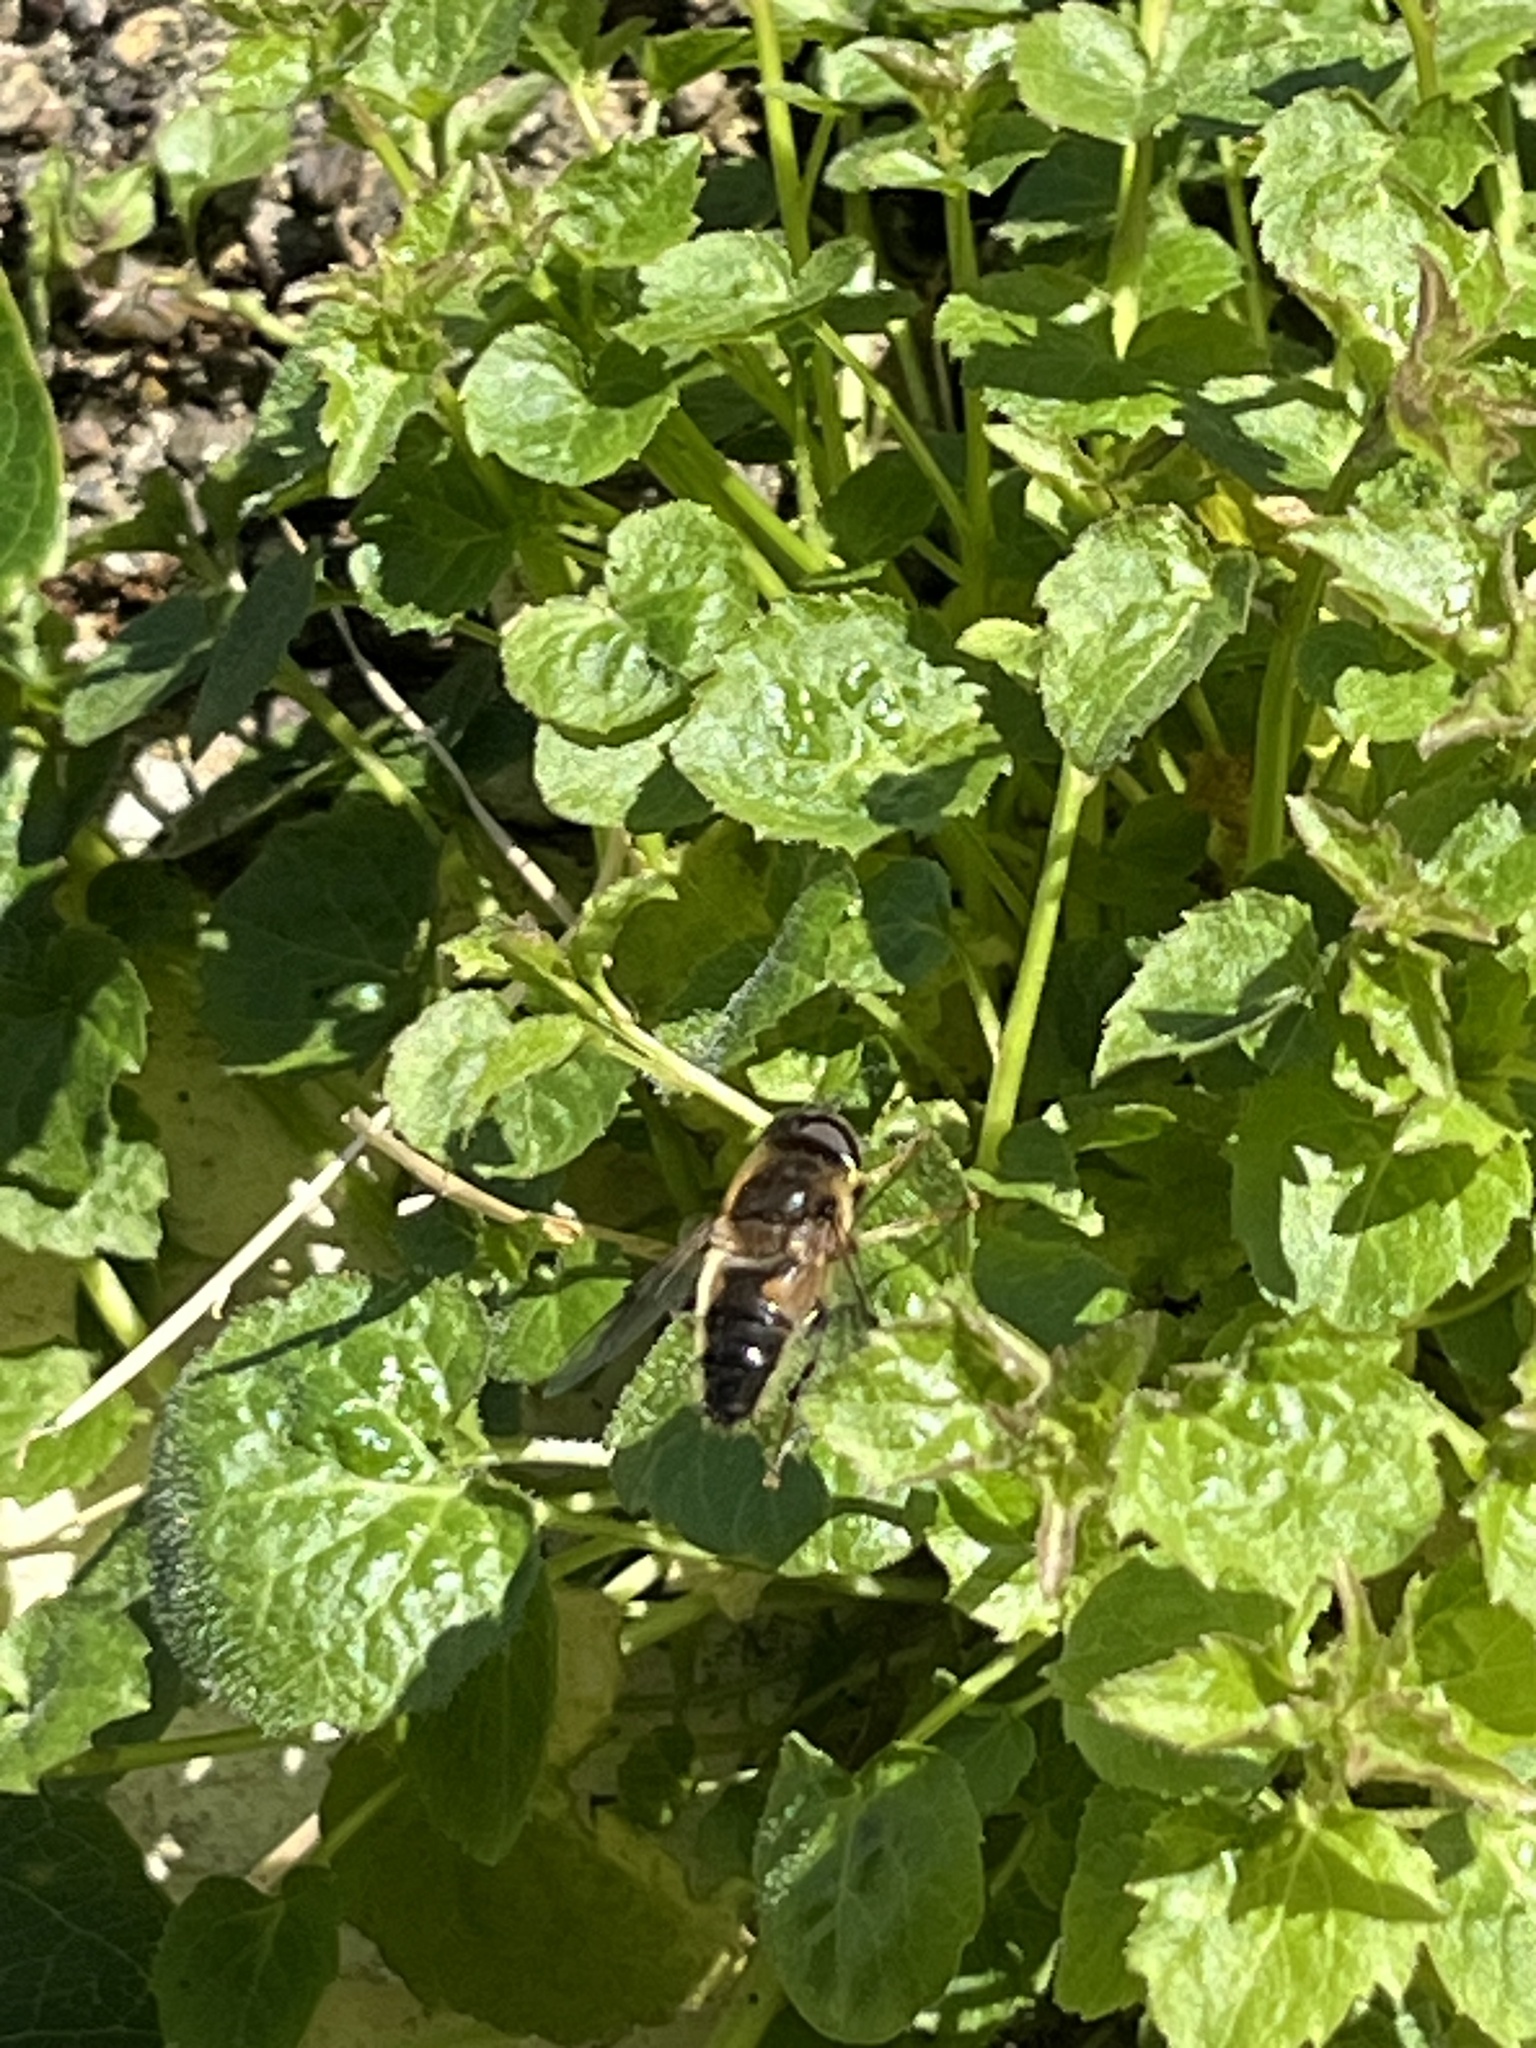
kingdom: Animalia
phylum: Arthropoda
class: Insecta
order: Diptera
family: Syrphidae
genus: Eristalis
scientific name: Eristalis pertinax
